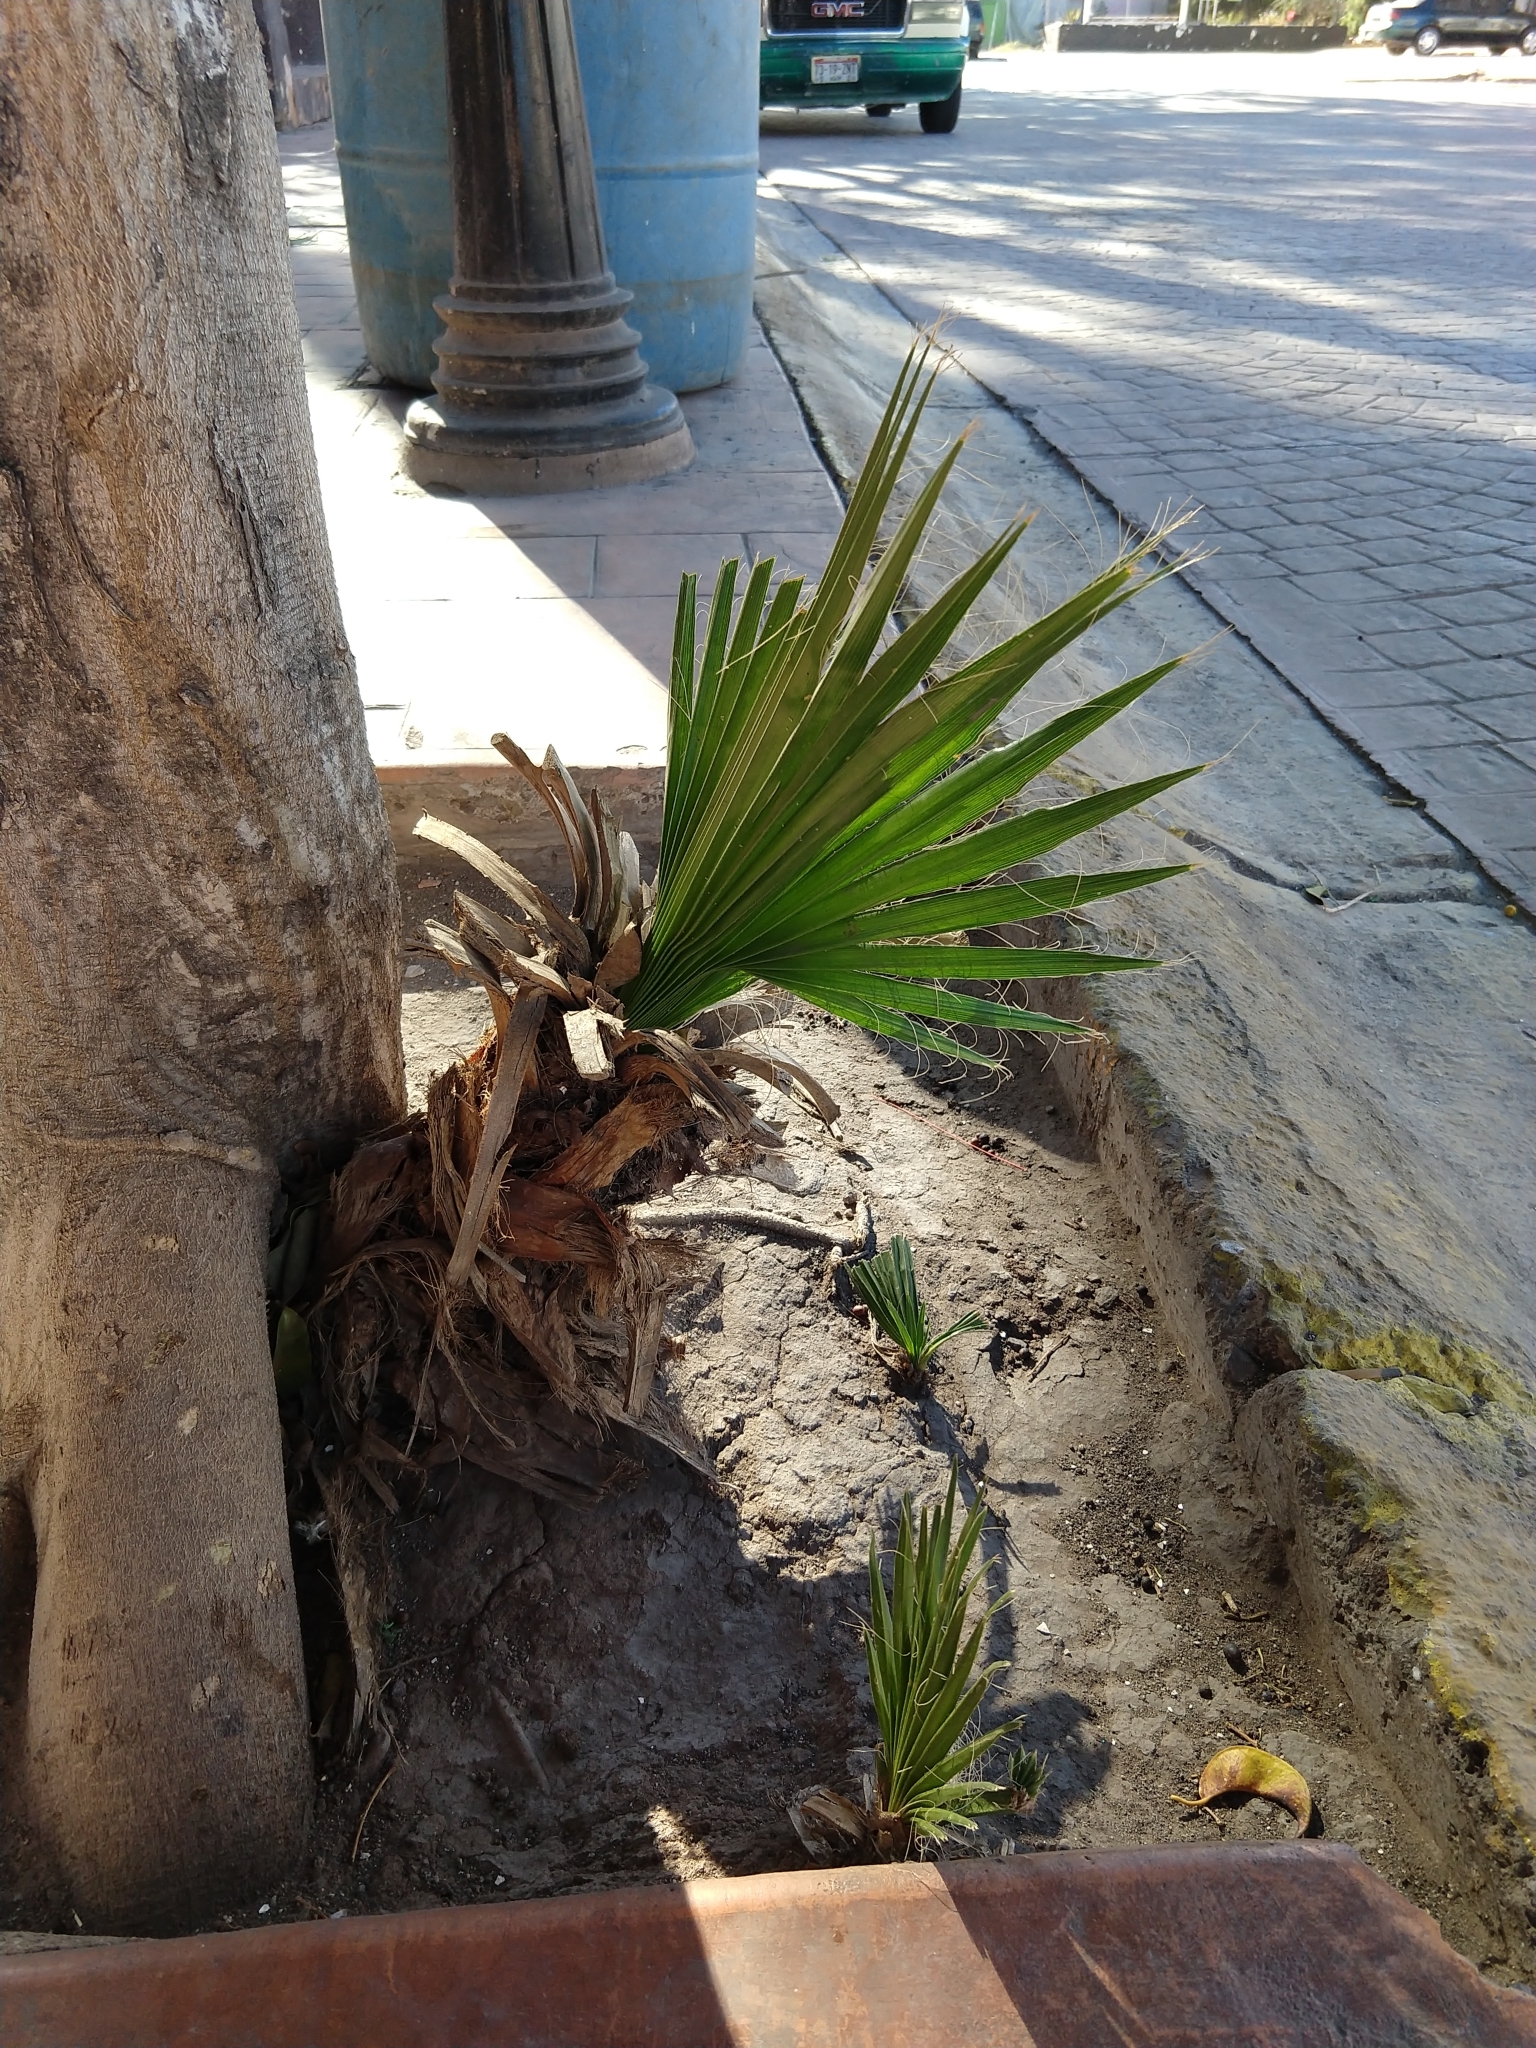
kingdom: Plantae
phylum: Tracheophyta
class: Liliopsida
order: Arecales
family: Arecaceae
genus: Washingtonia
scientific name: Washingtonia robusta
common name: Mexican fan palm
